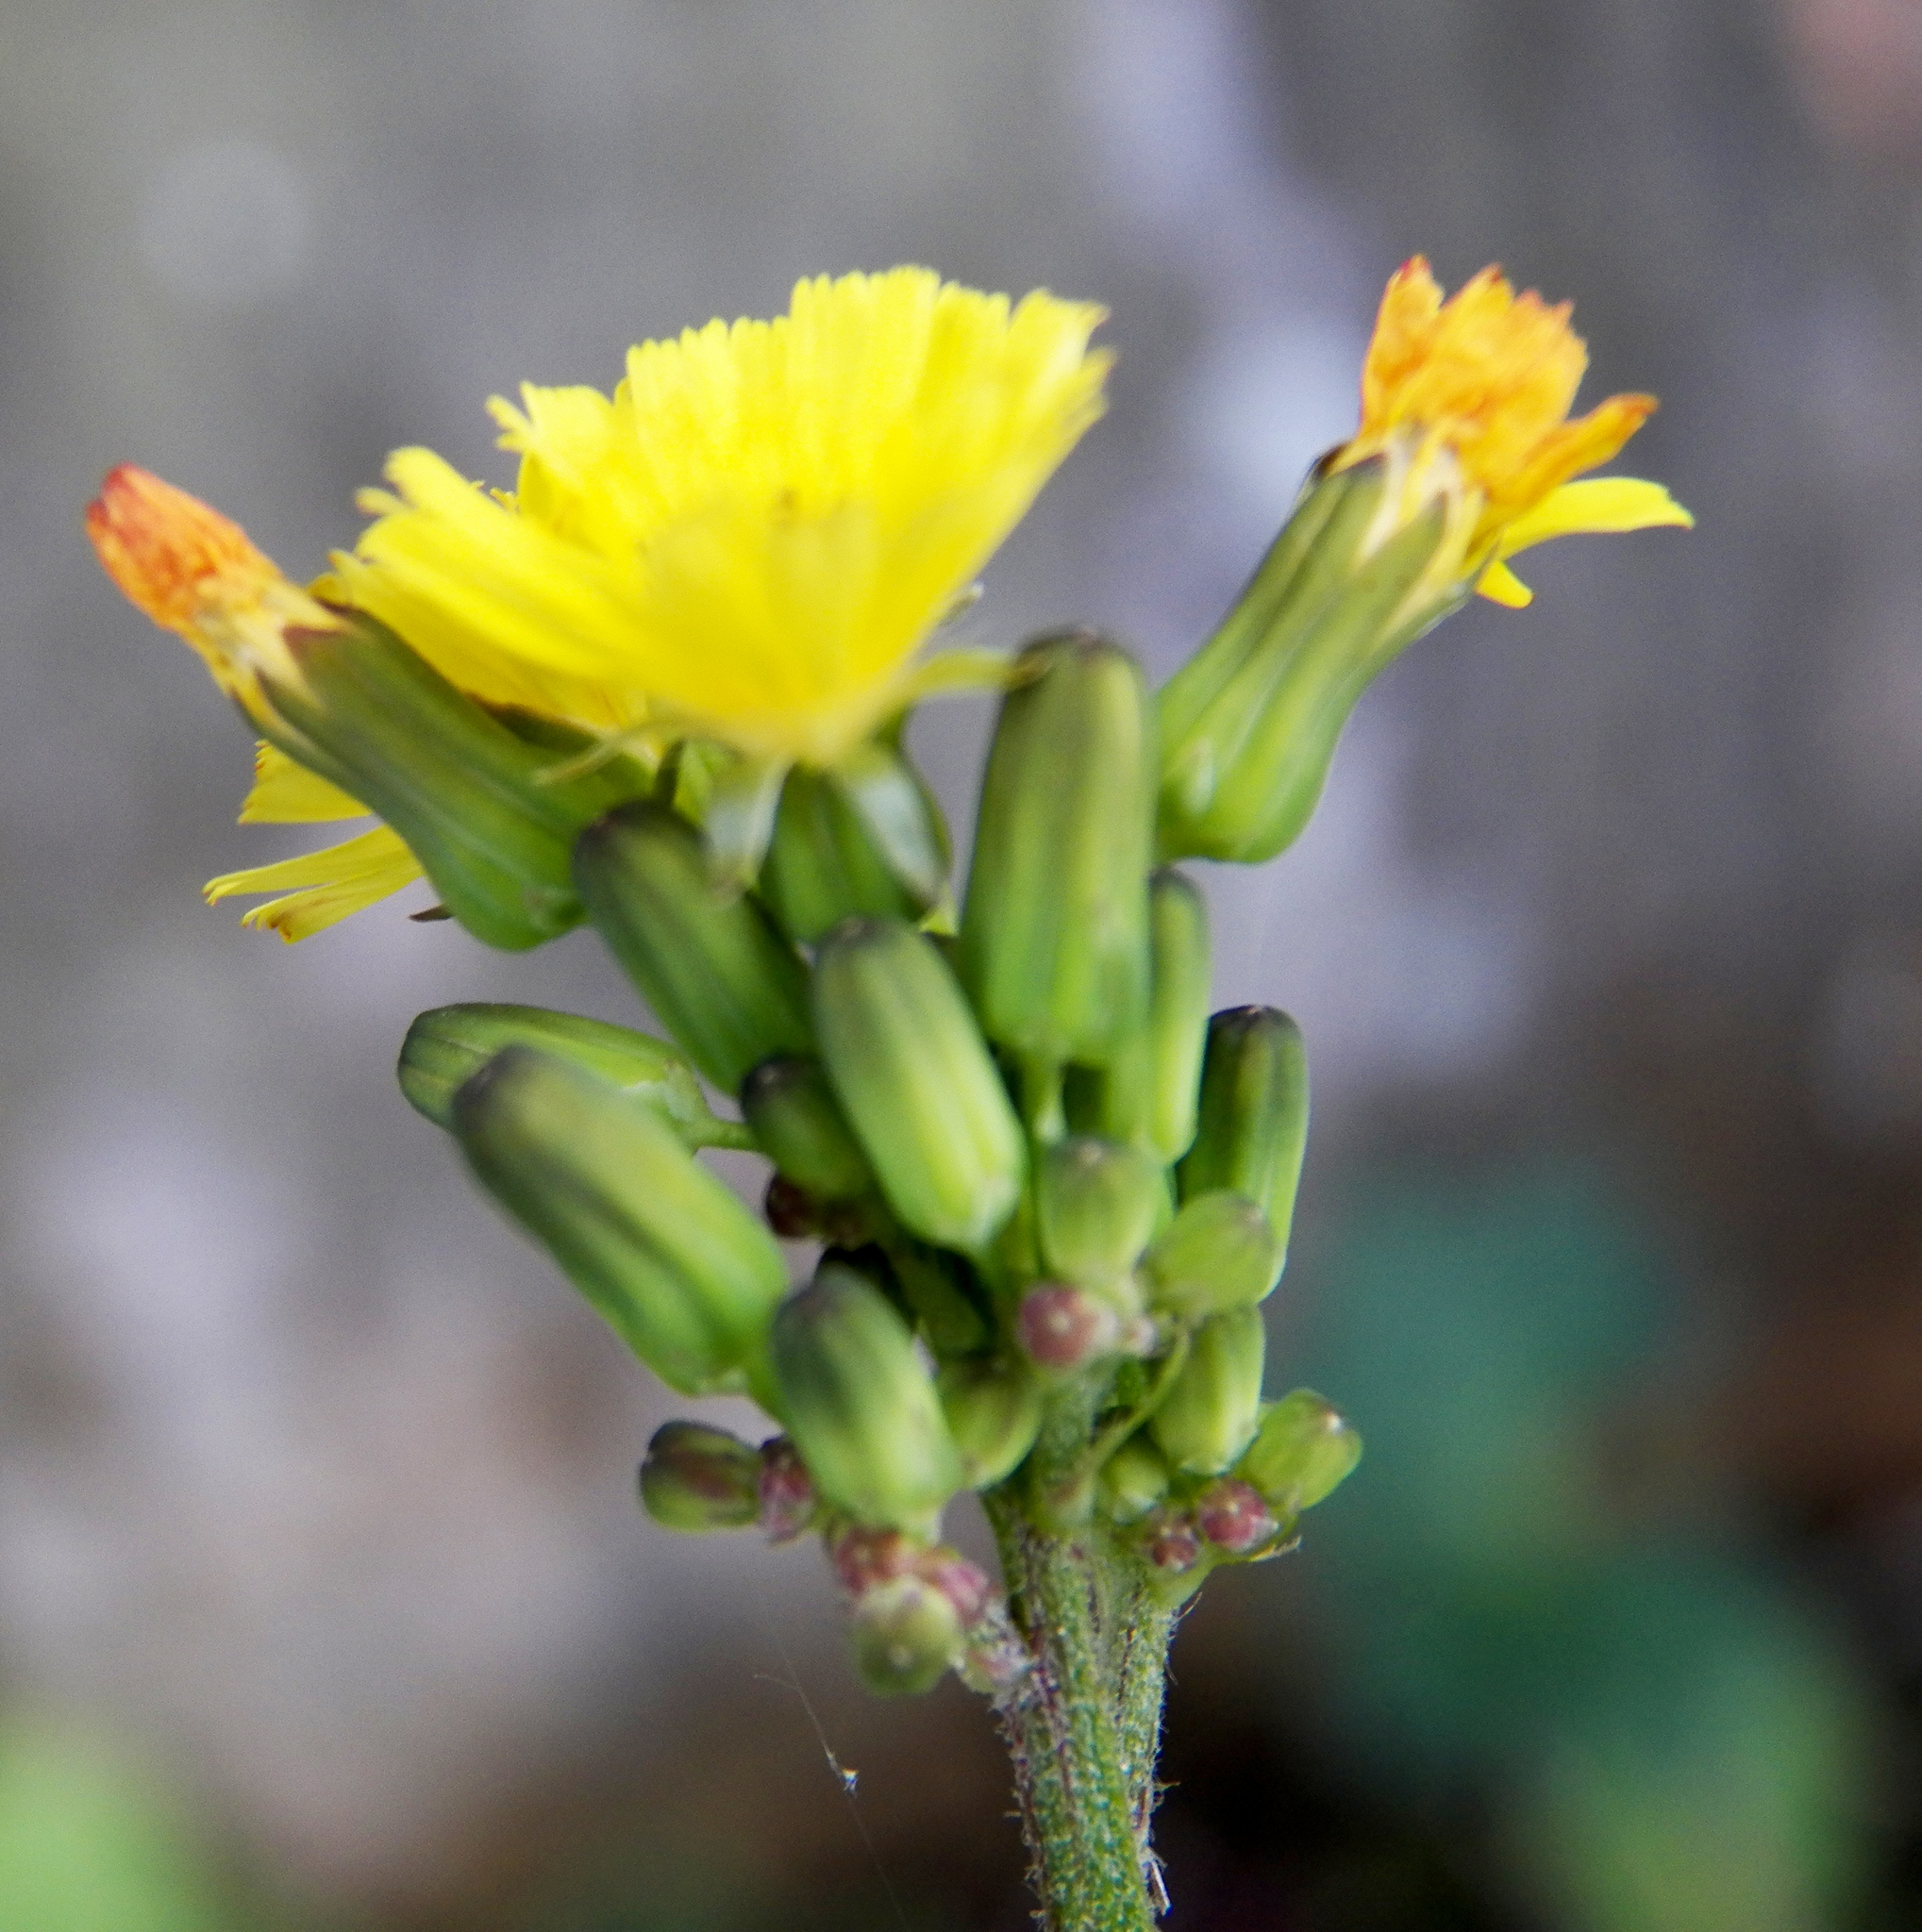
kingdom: Plantae
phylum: Tracheophyta
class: Magnoliopsida
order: Asterales
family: Asteraceae
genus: Youngia
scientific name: Youngia japonica
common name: Oriental false hawksbeard
